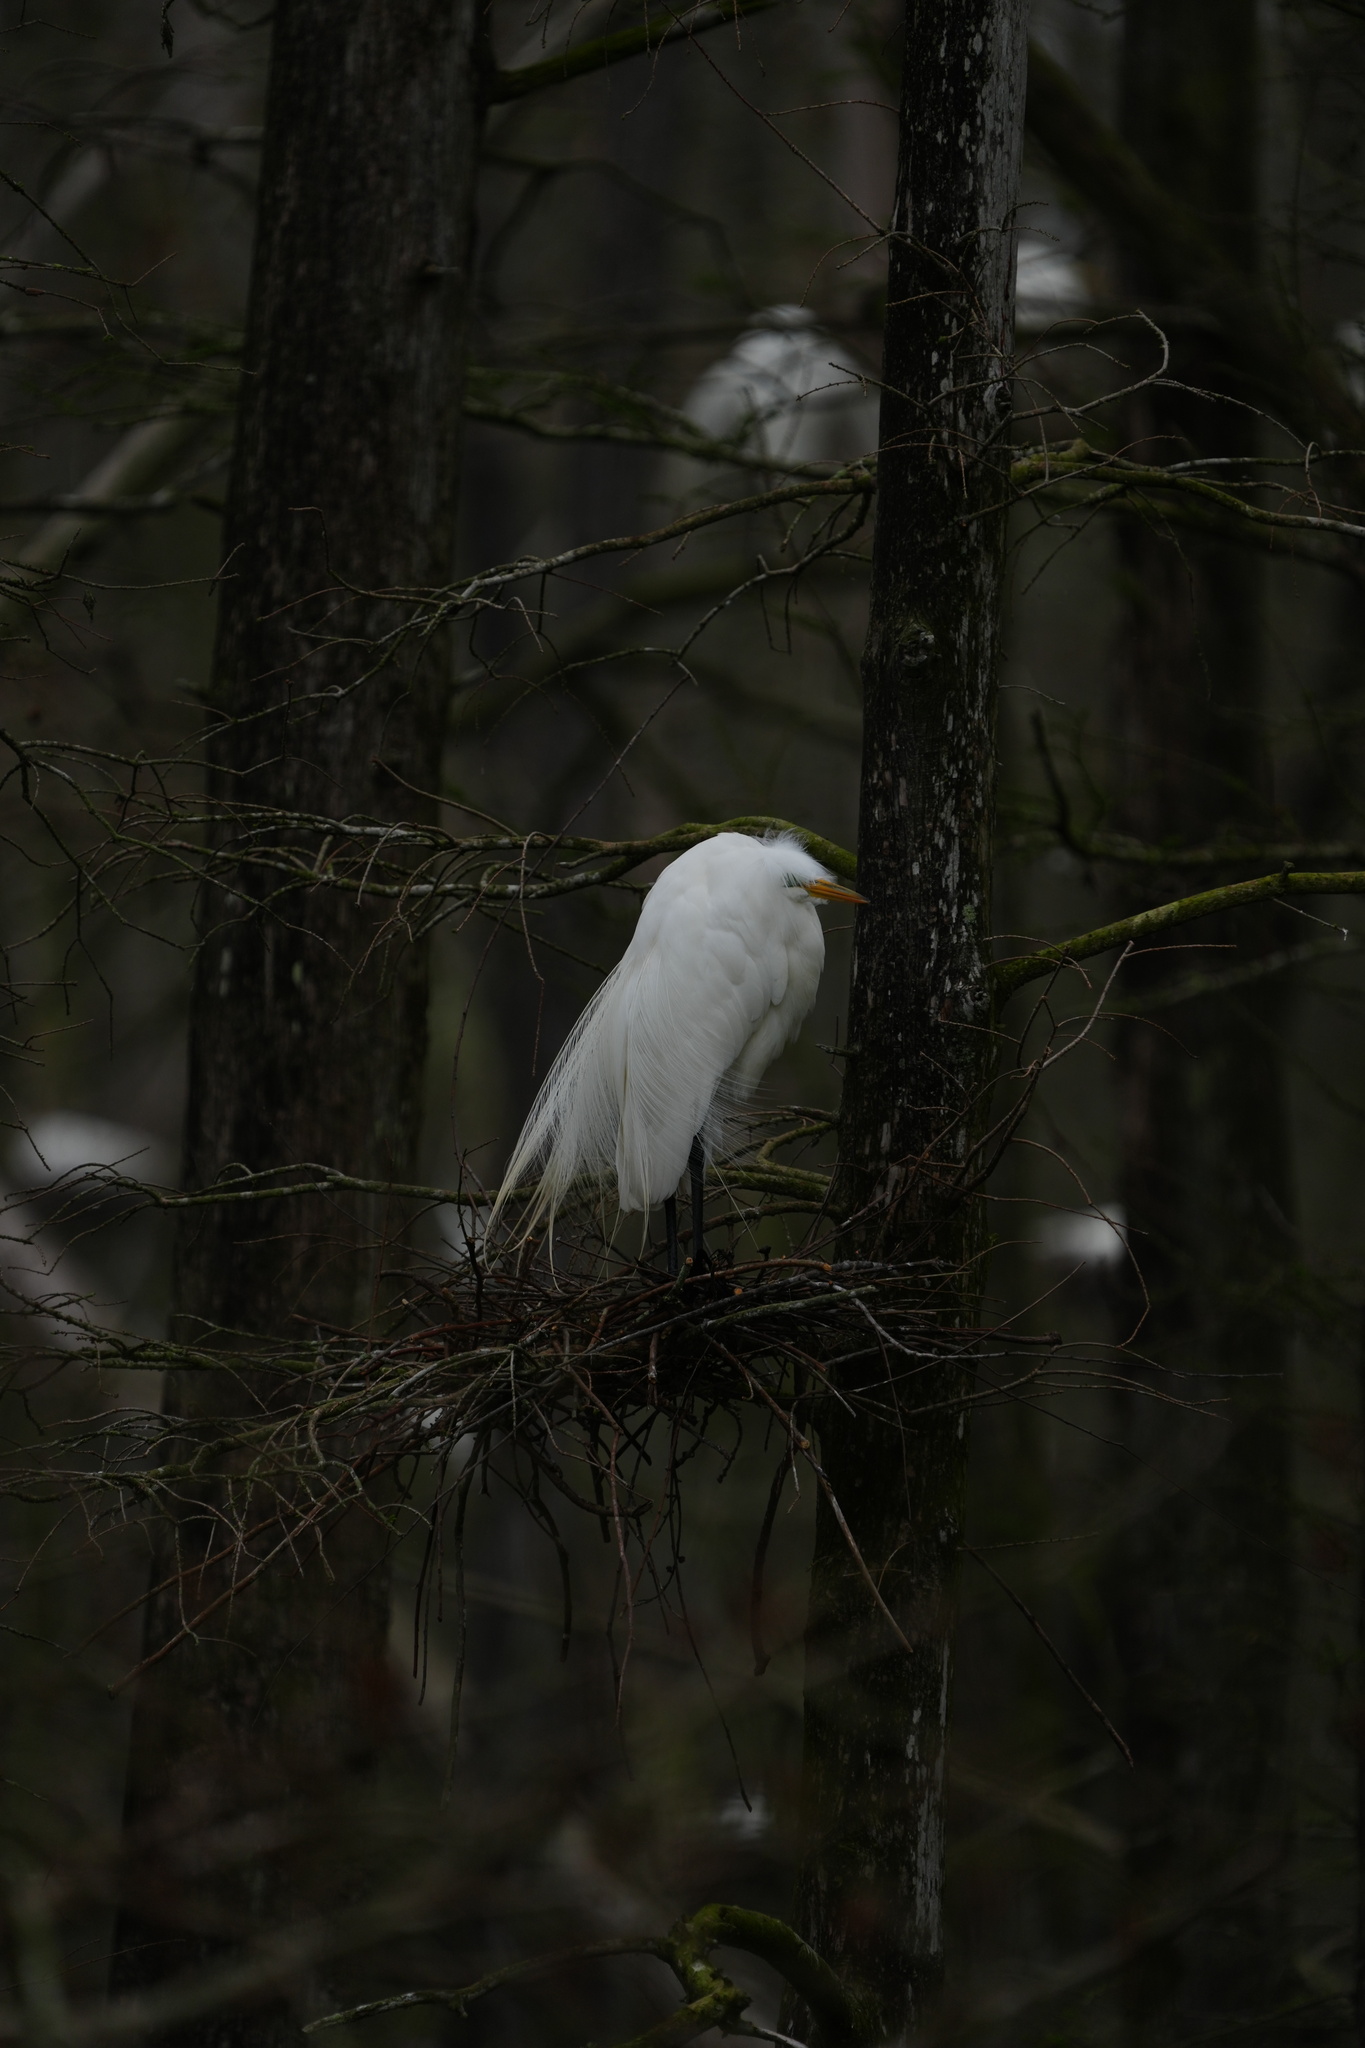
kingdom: Animalia
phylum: Chordata
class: Aves
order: Pelecaniformes
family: Ardeidae
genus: Ardea
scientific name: Ardea alba
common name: Great egret
